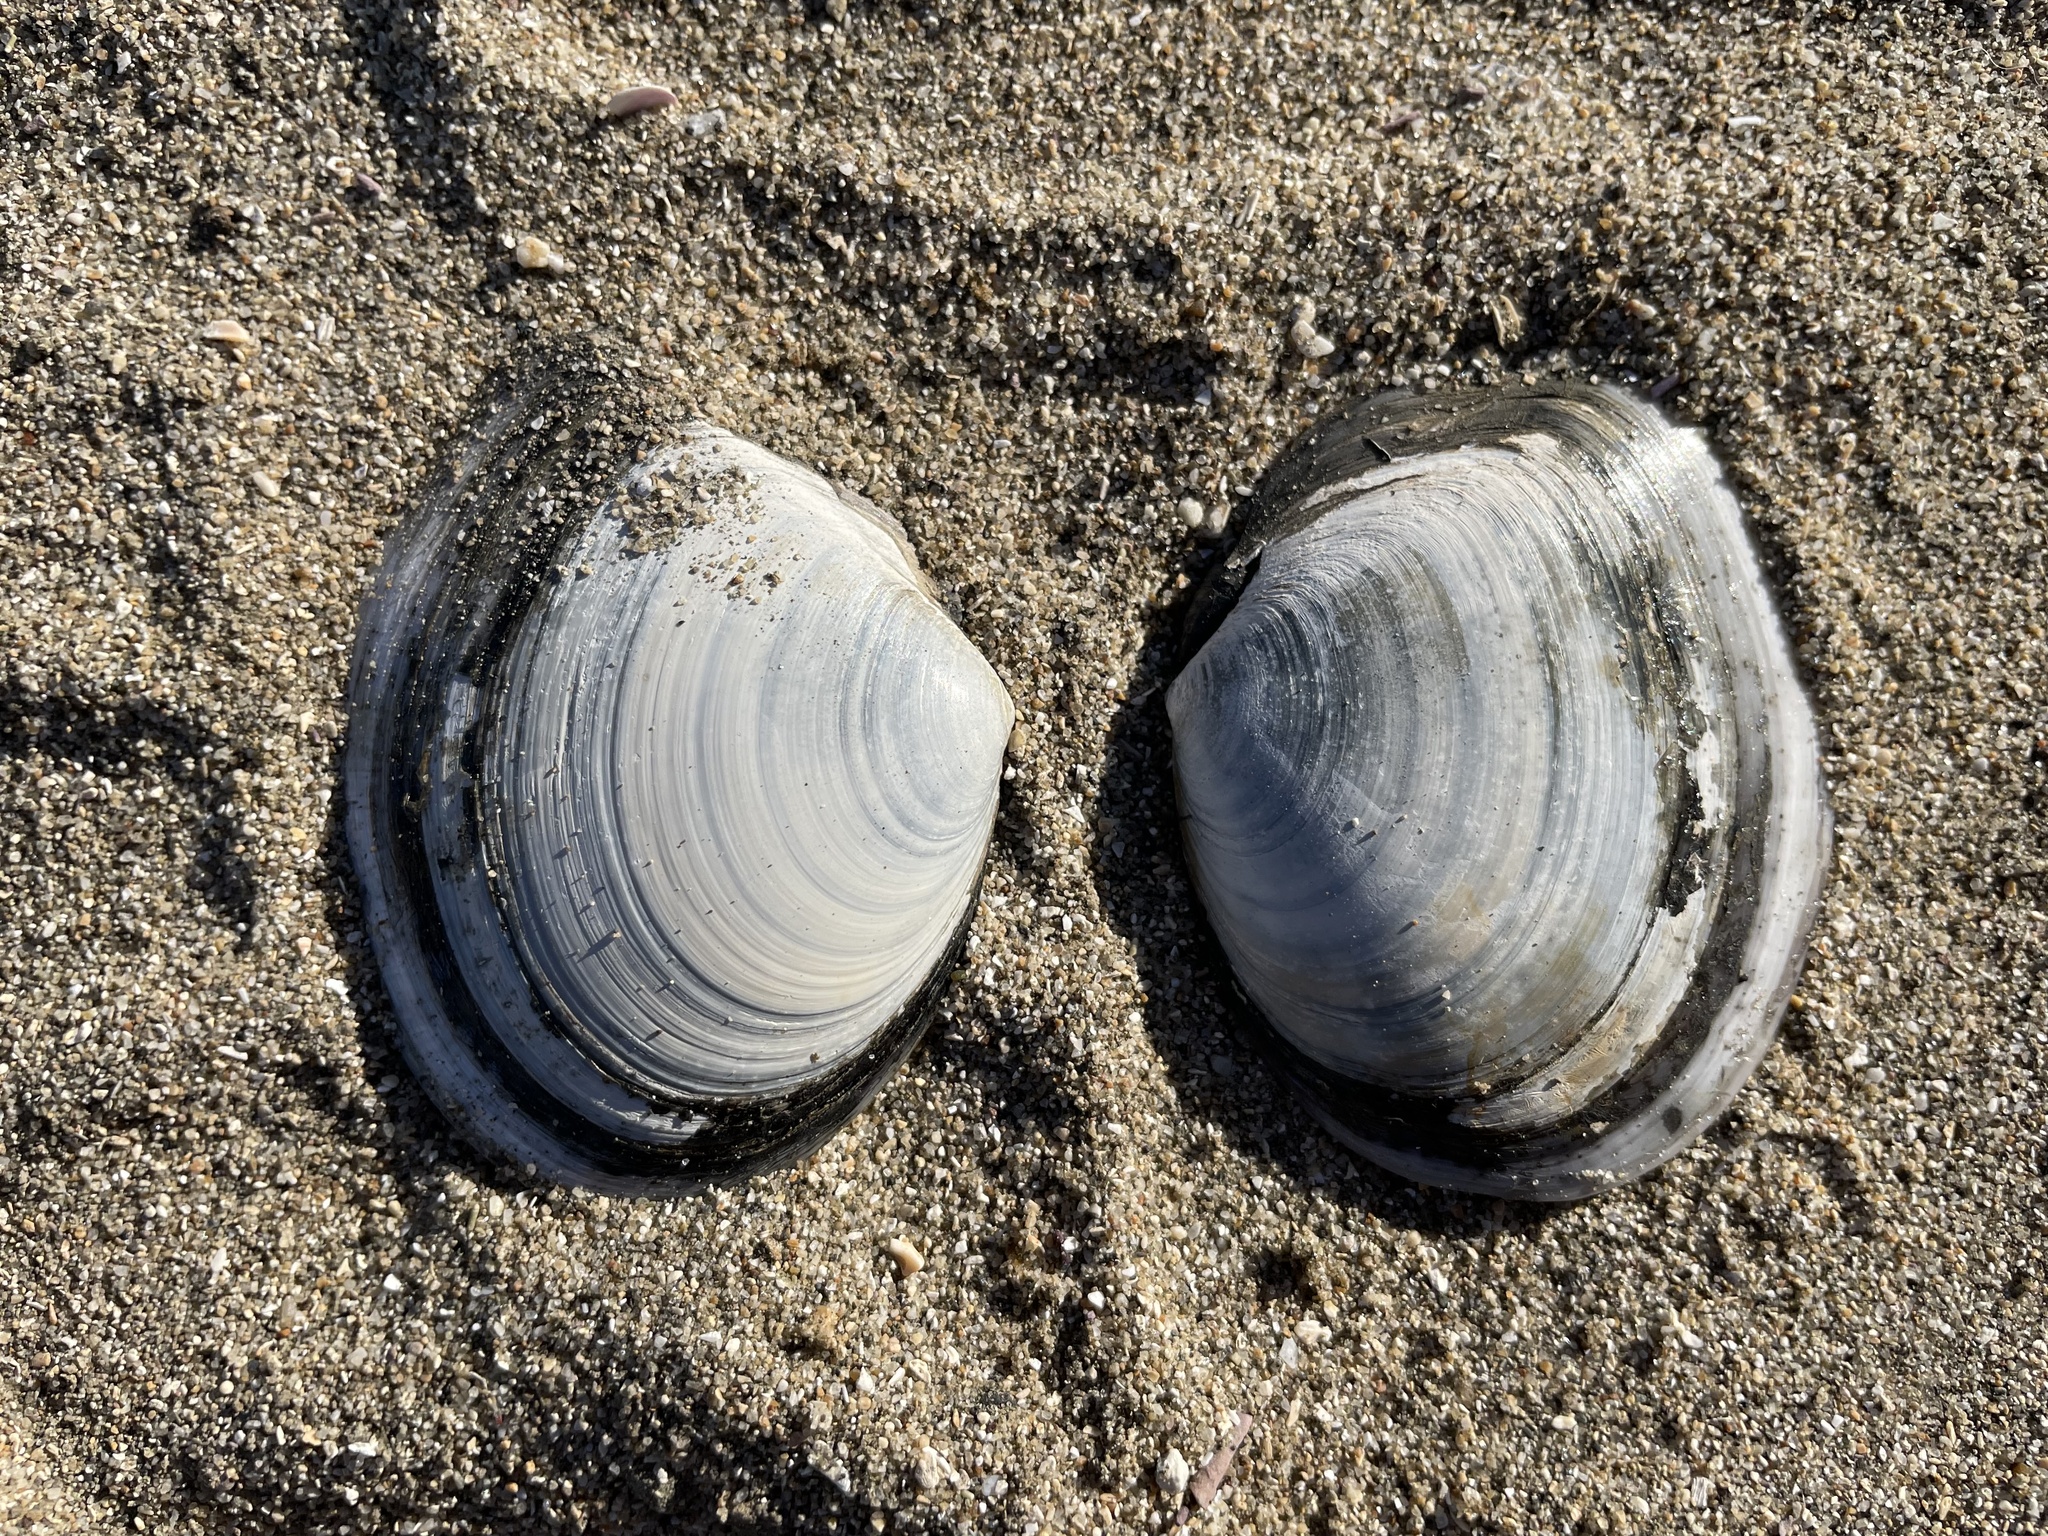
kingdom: Animalia
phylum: Mollusca
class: Bivalvia
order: Cardiida
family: Tellinidae
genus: Rexithaerus
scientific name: Rexithaerus secta
